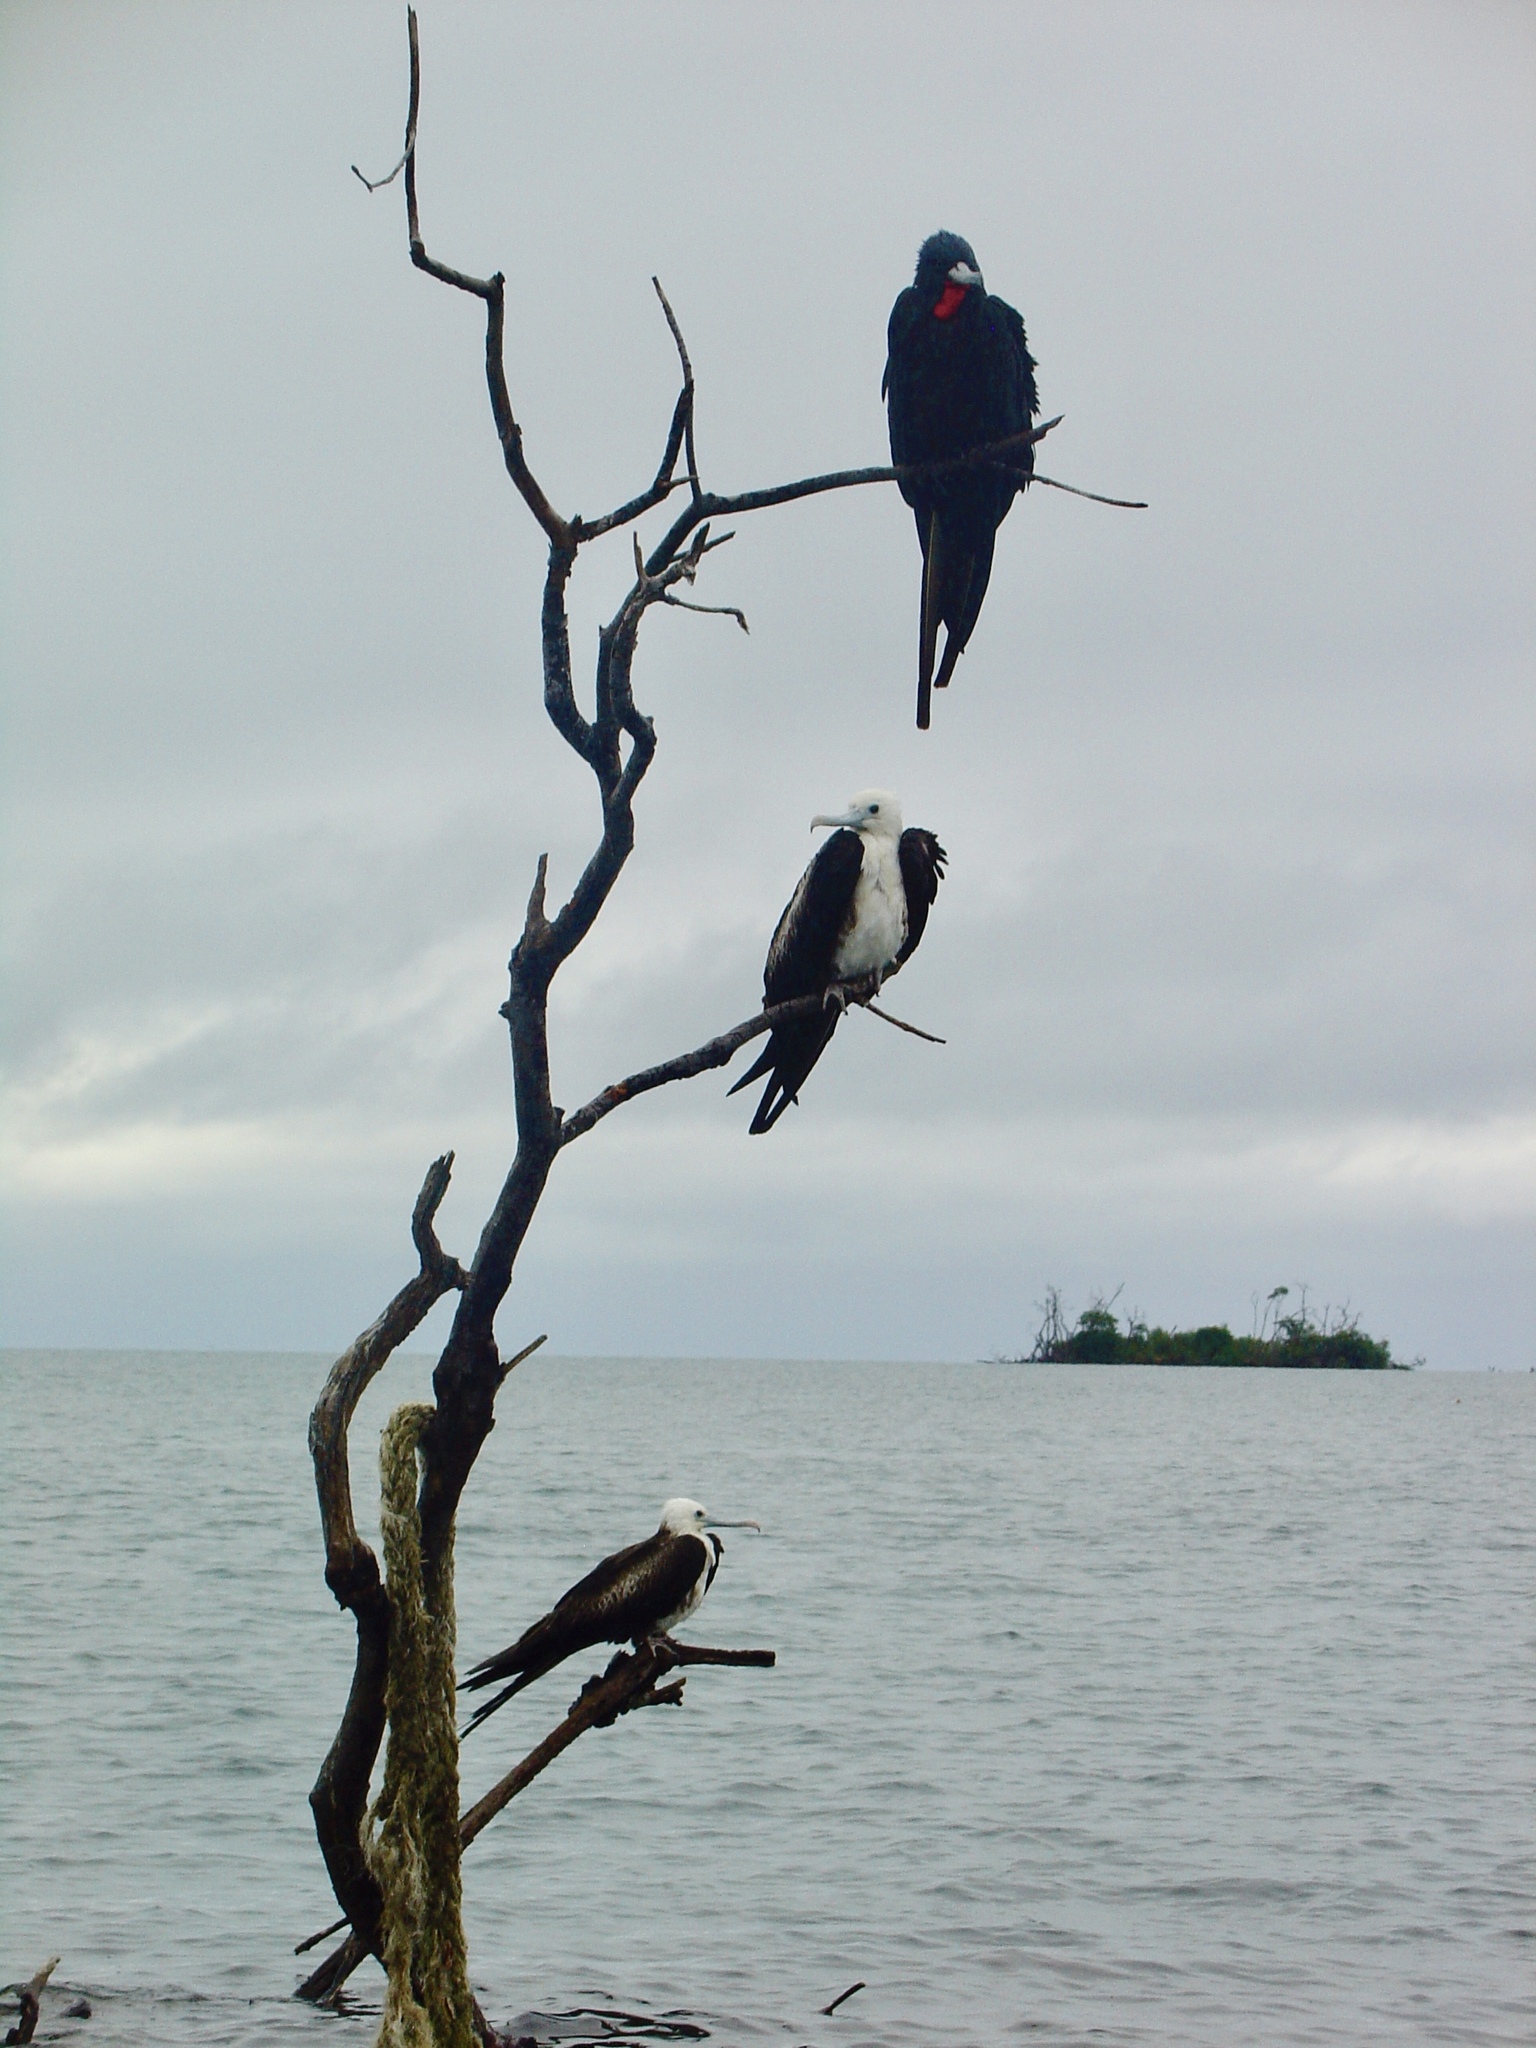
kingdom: Animalia
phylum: Chordata
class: Aves
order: Suliformes
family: Fregatidae
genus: Fregata
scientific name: Fregata magnificens
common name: Magnificent frigatebird
